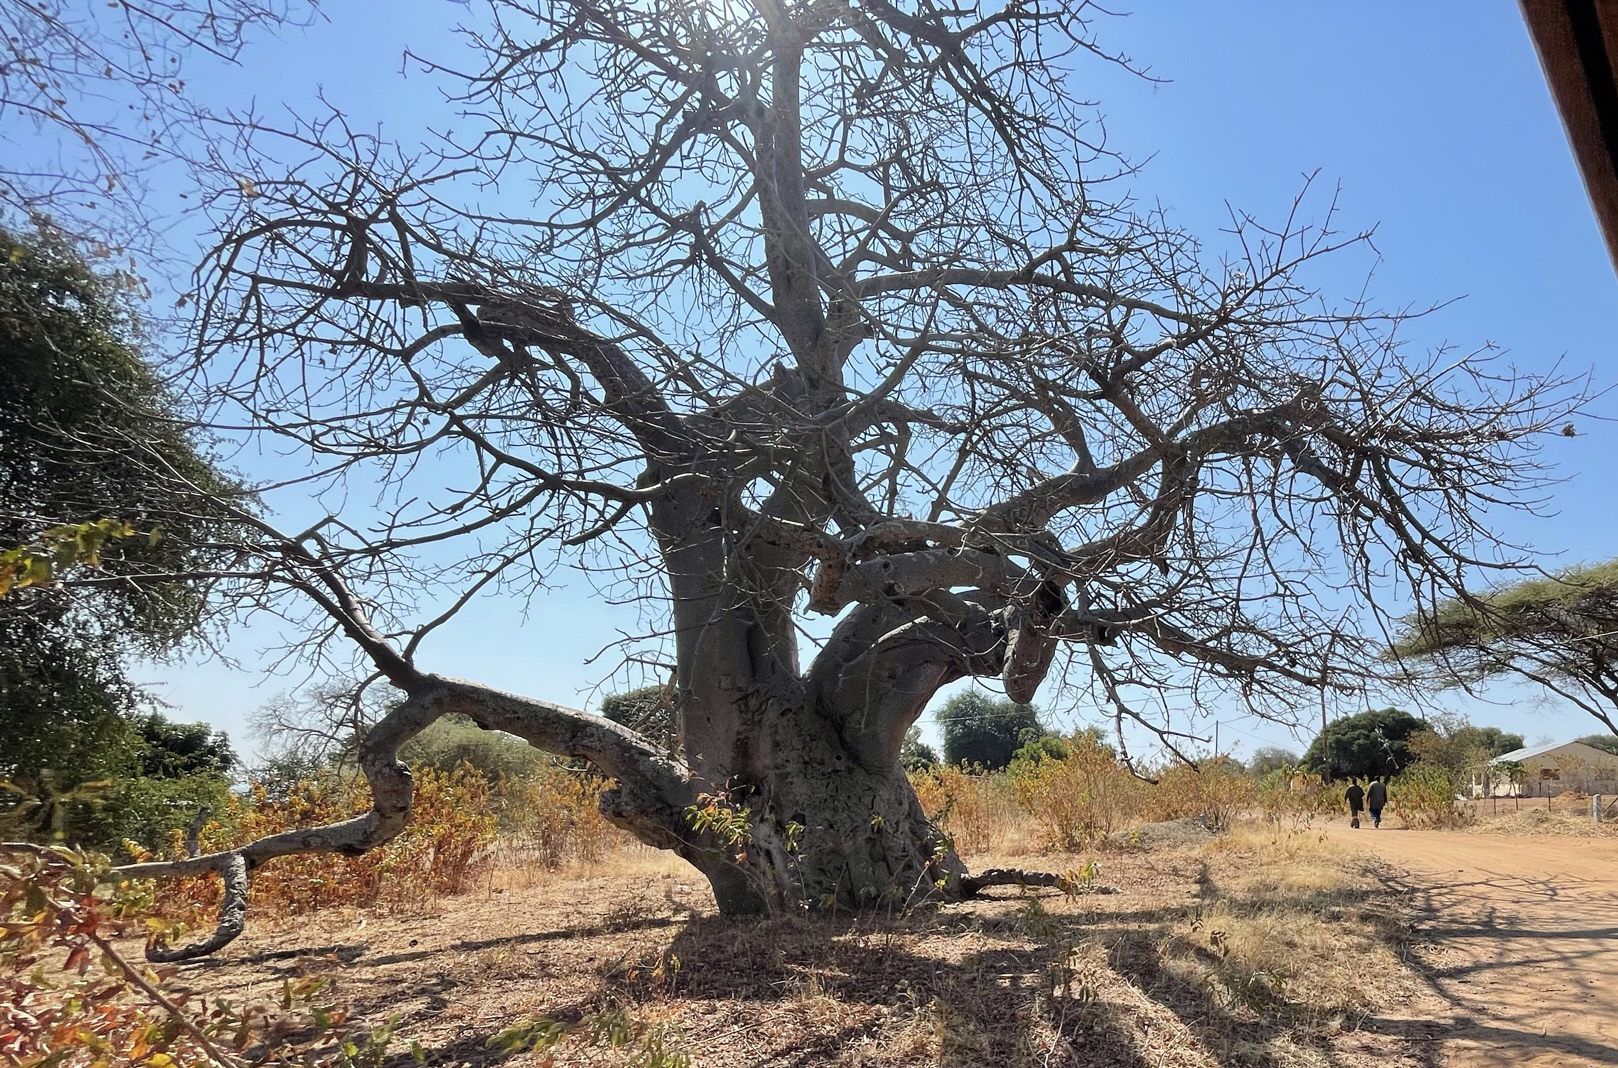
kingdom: Plantae
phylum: Tracheophyta
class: Magnoliopsida
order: Malvales
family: Malvaceae
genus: Adansonia
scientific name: Adansonia digitata
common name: Dead-rat-tree
